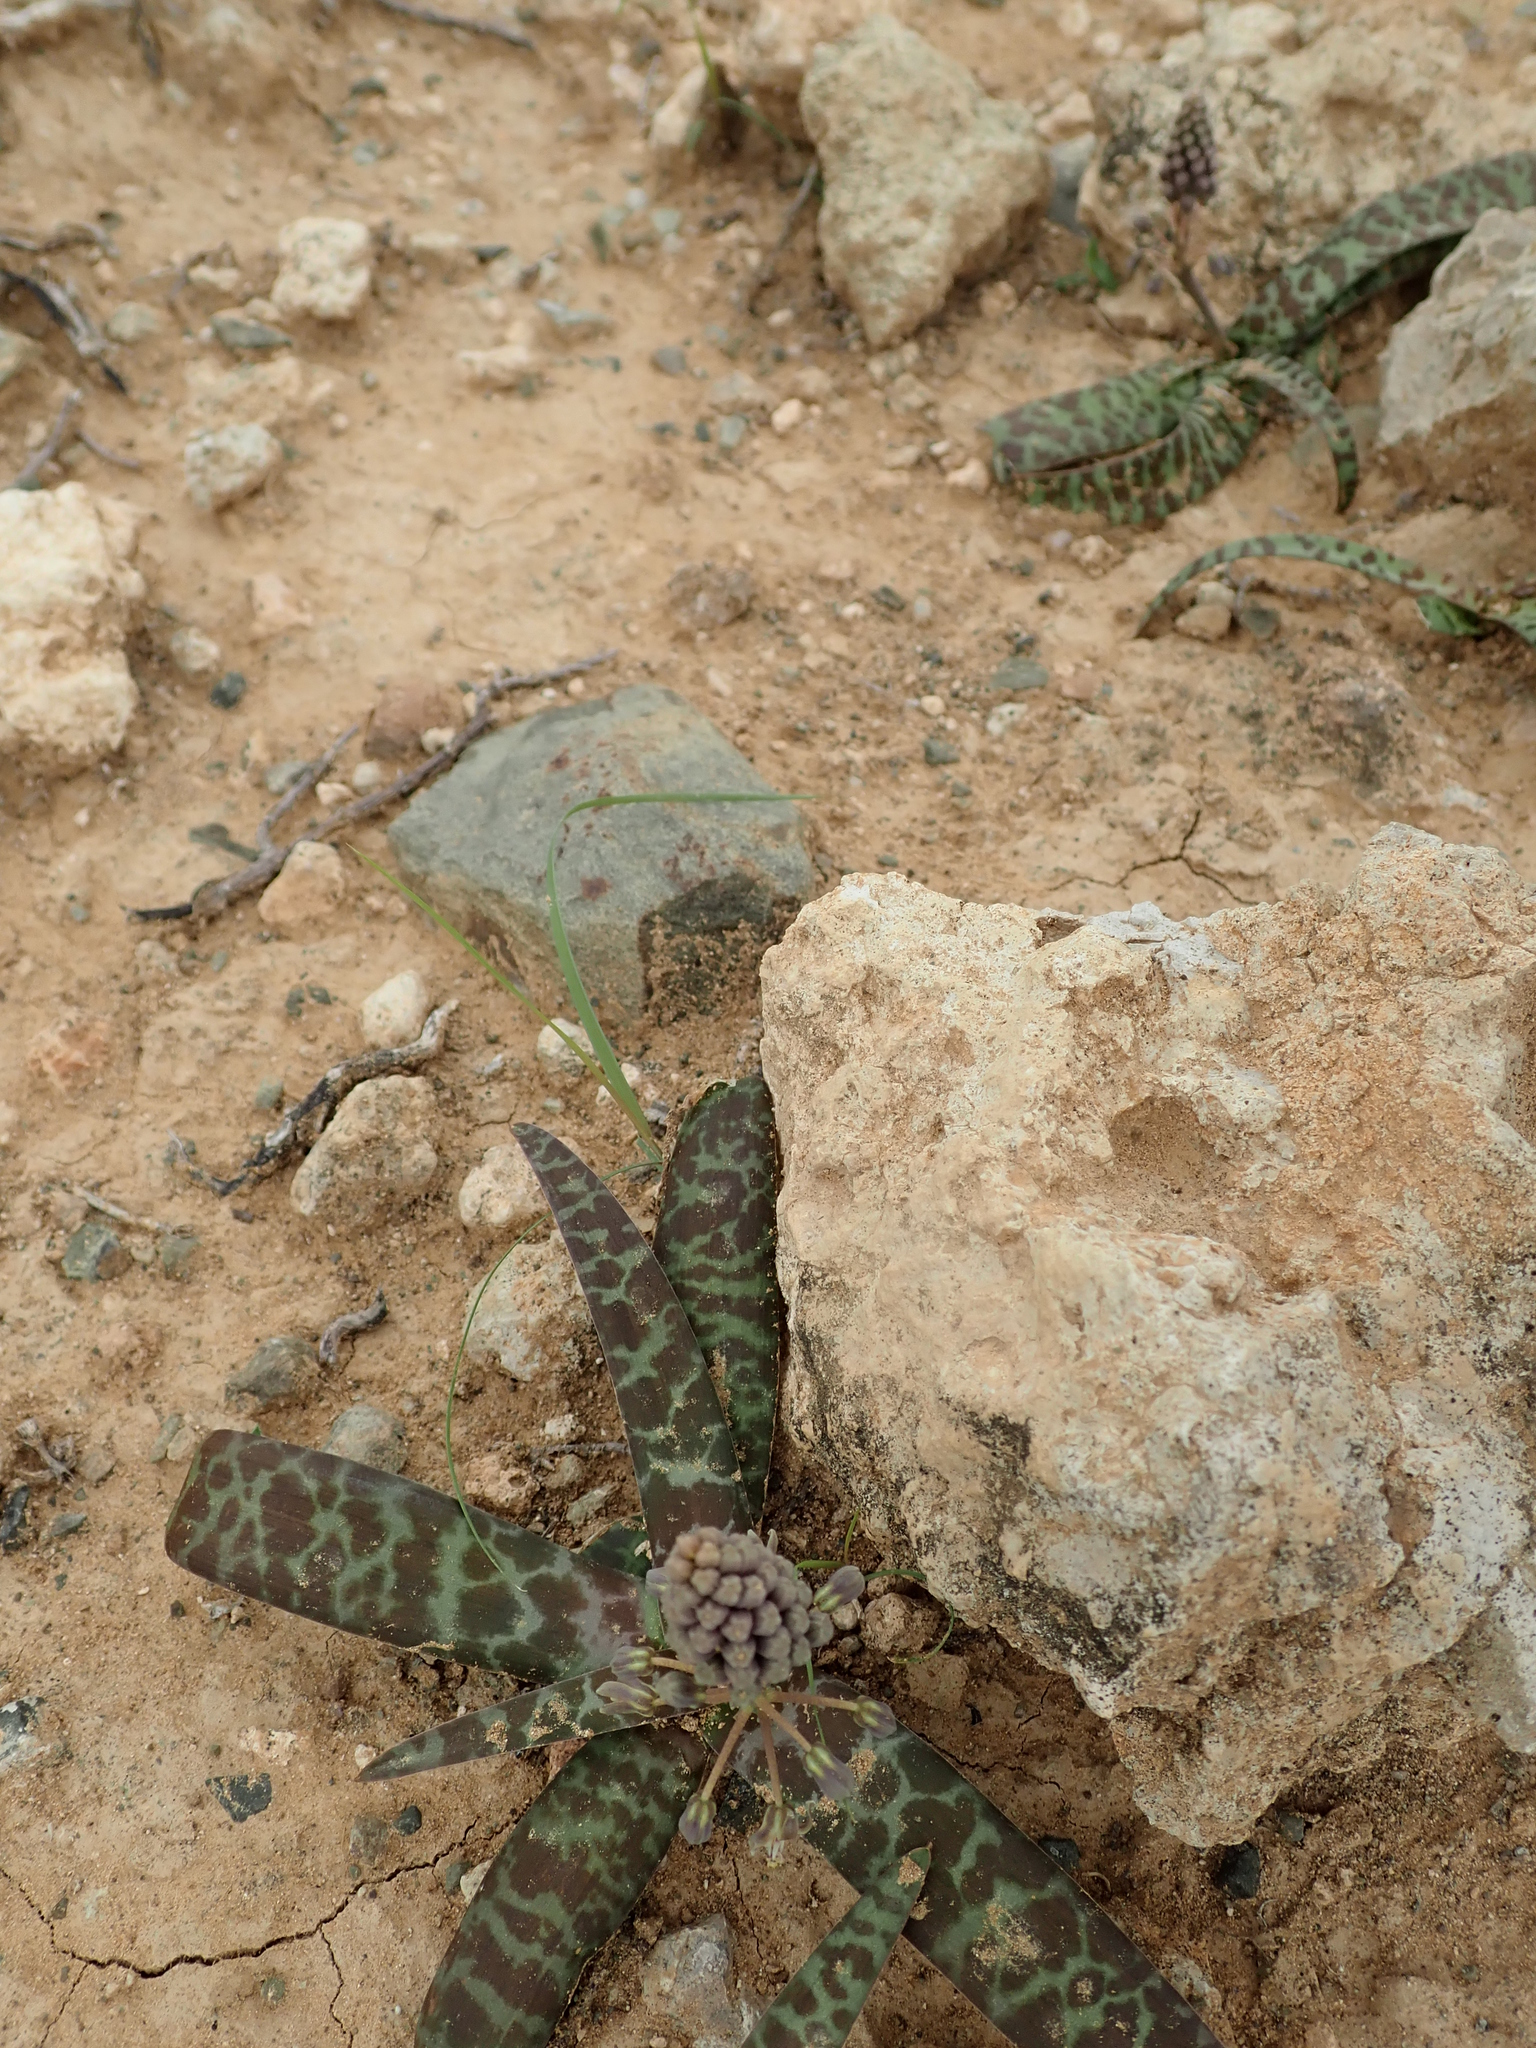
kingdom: Plantae
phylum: Tracheophyta
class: Liliopsida
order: Asparagales
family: Asparagaceae
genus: Ledebouria
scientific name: Ledebouria apertiflora
